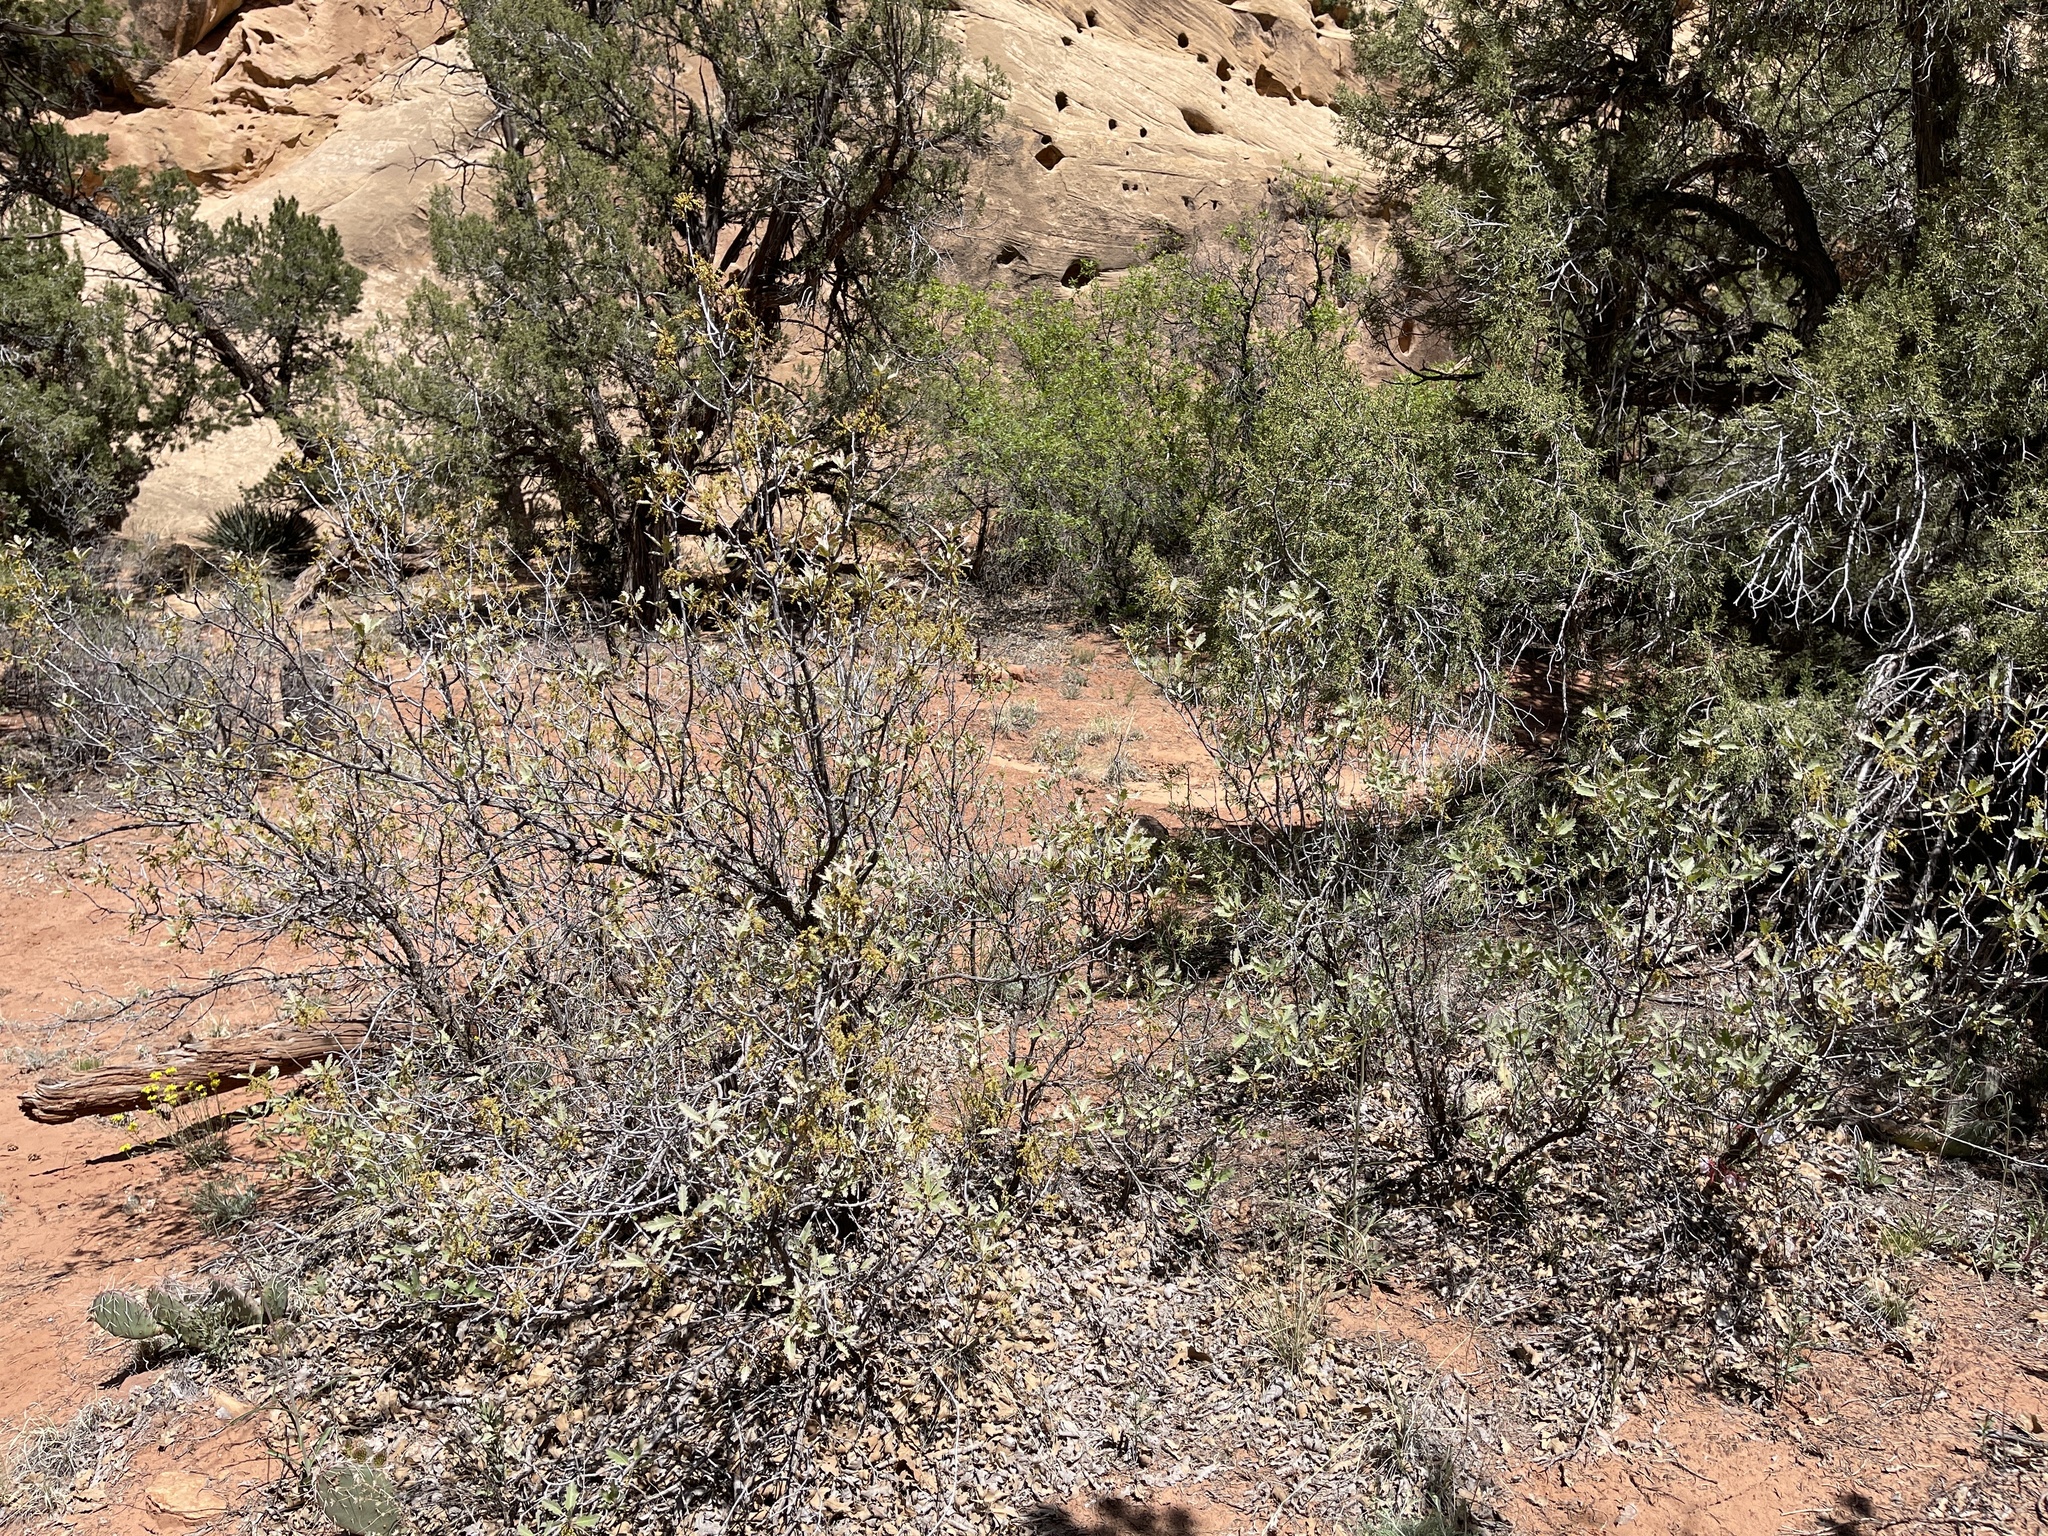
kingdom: Plantae
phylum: Tracheophyta
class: Magnoliopsida
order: Fagales
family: Fagaceae
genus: Quercus
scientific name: Quercus welshii
